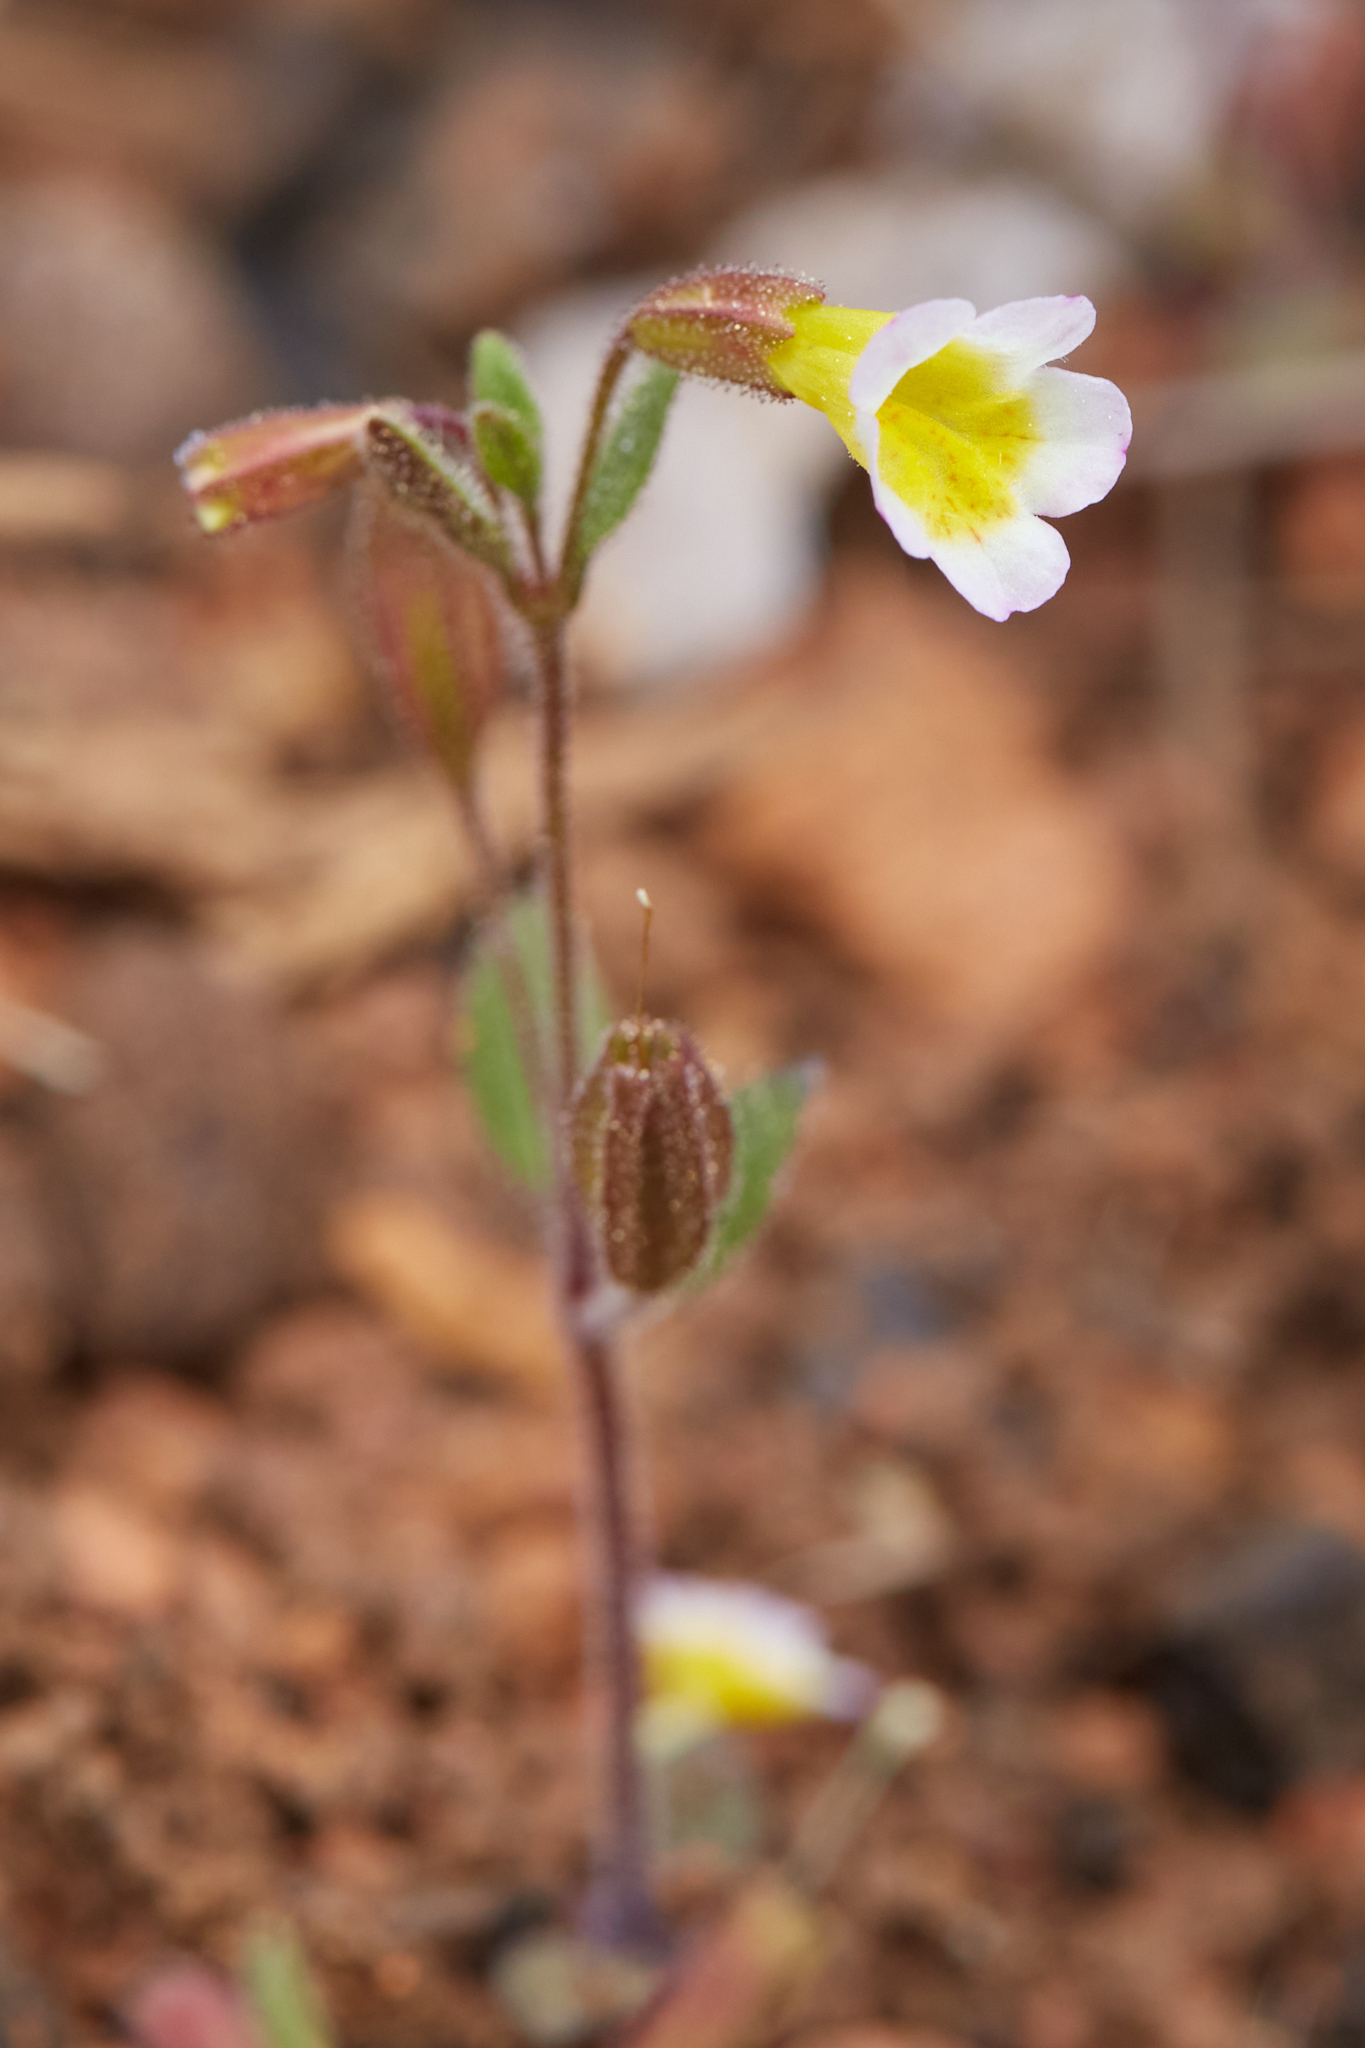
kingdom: Plantae
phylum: Tracheophyta
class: Magnoliopsida
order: Lamiales
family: Phrymaceae
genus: Erythranthe
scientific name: Erythranthe trinitiensis
